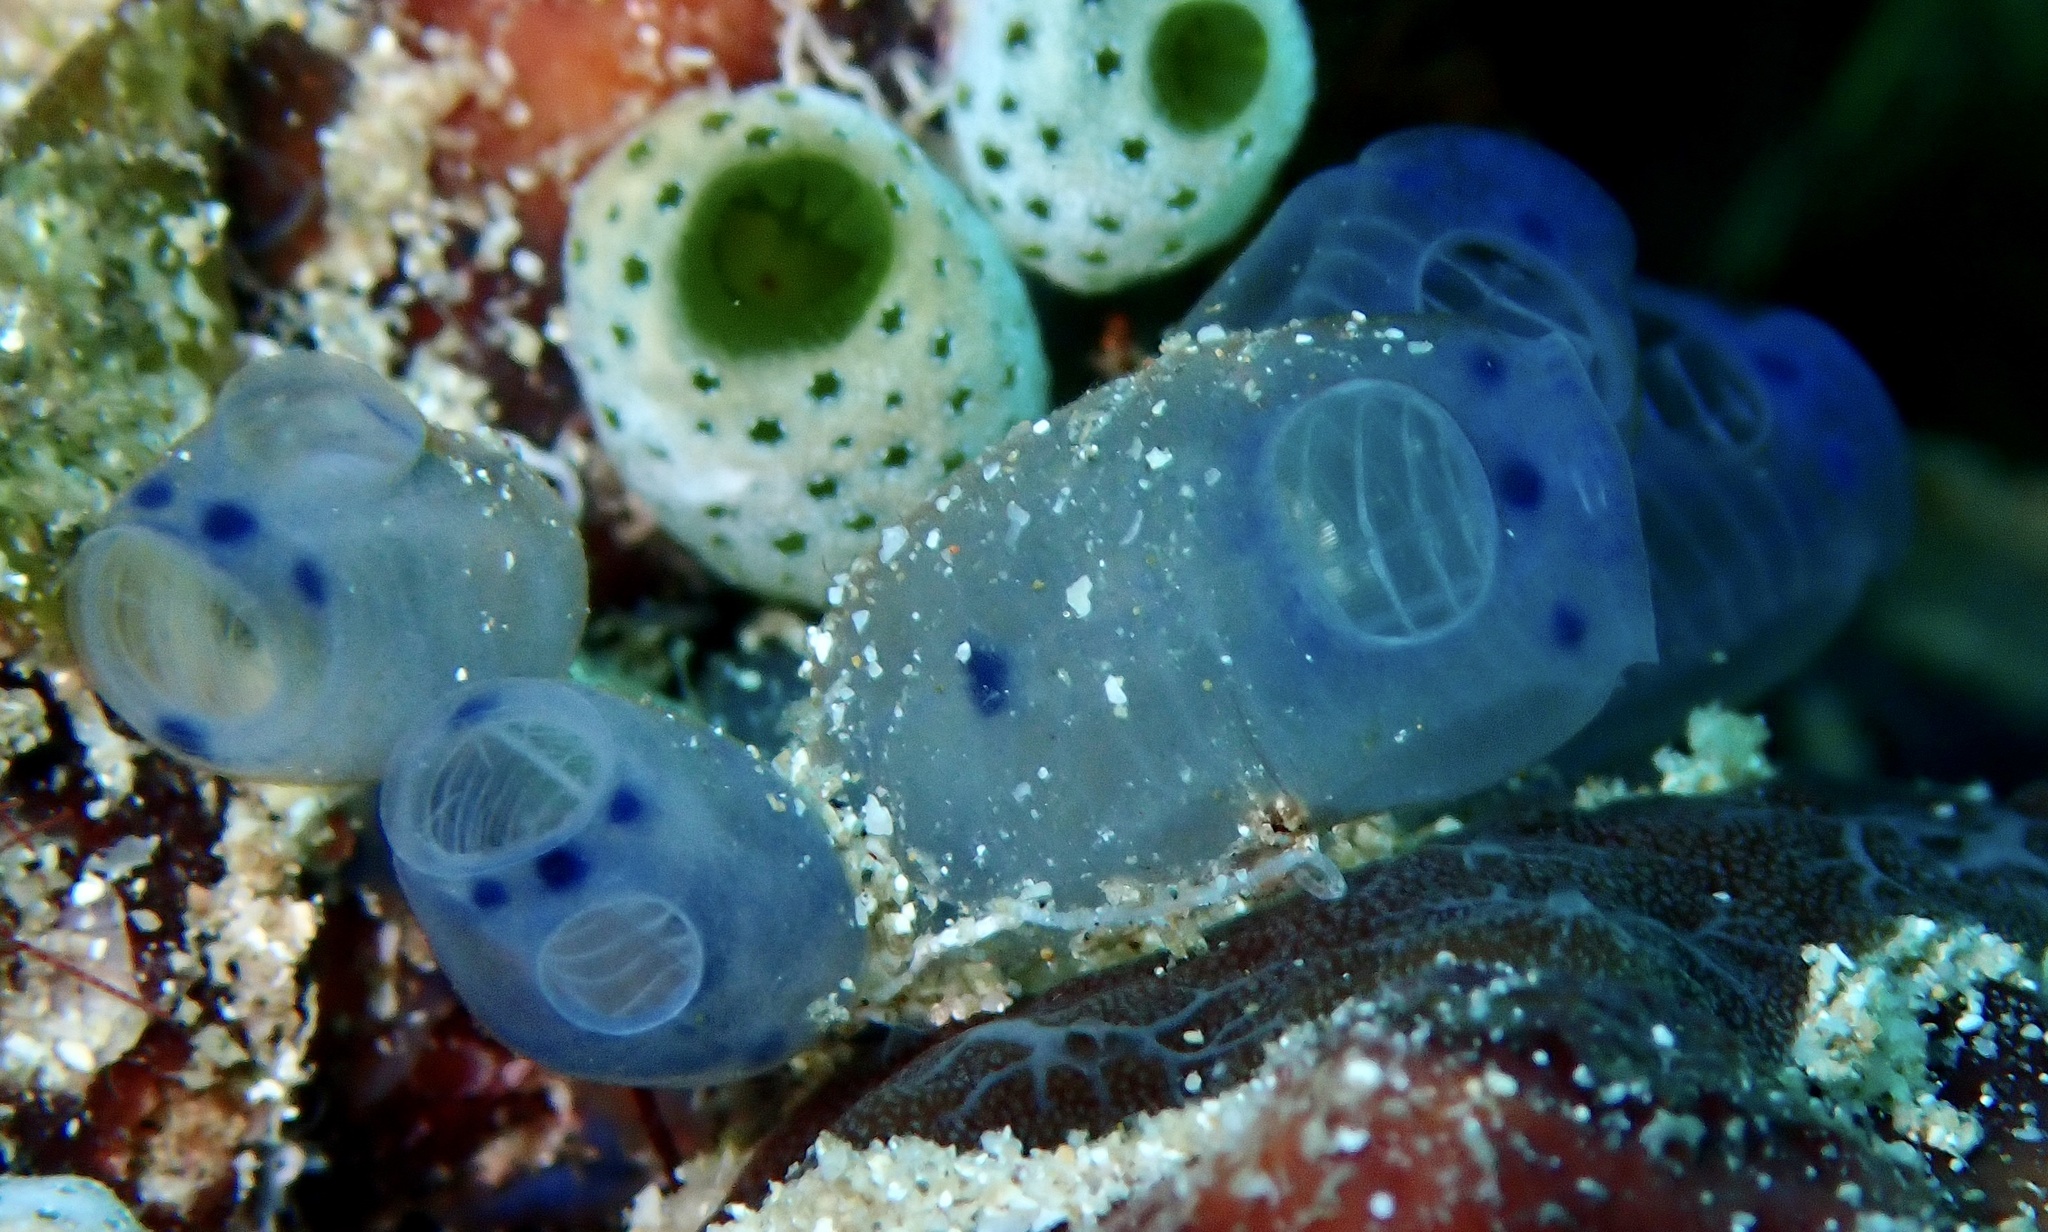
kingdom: Animalia
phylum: Chordata
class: Ascidiacea
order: Aplousobranchia
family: Clavelinidae
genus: Clavelina
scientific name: Clavelina moluccensis
